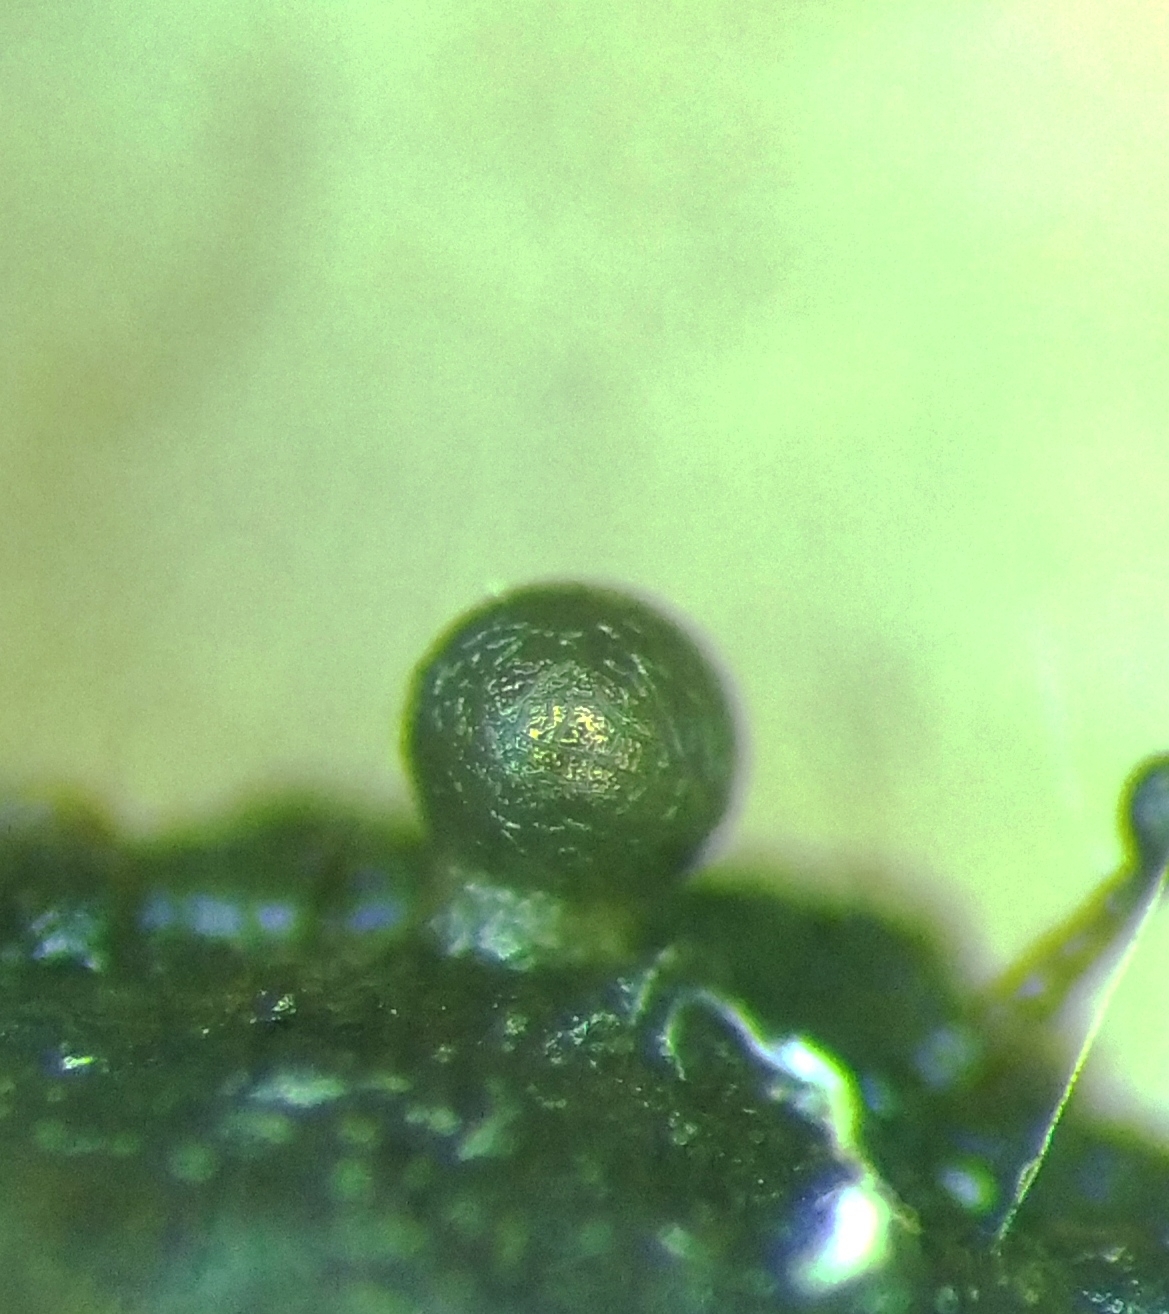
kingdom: Protozoa
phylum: Mycetozoa
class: Myxomycetes
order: Trichiales
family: Dianemataceae
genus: Calomyxa
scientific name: Calomyxa metallica
